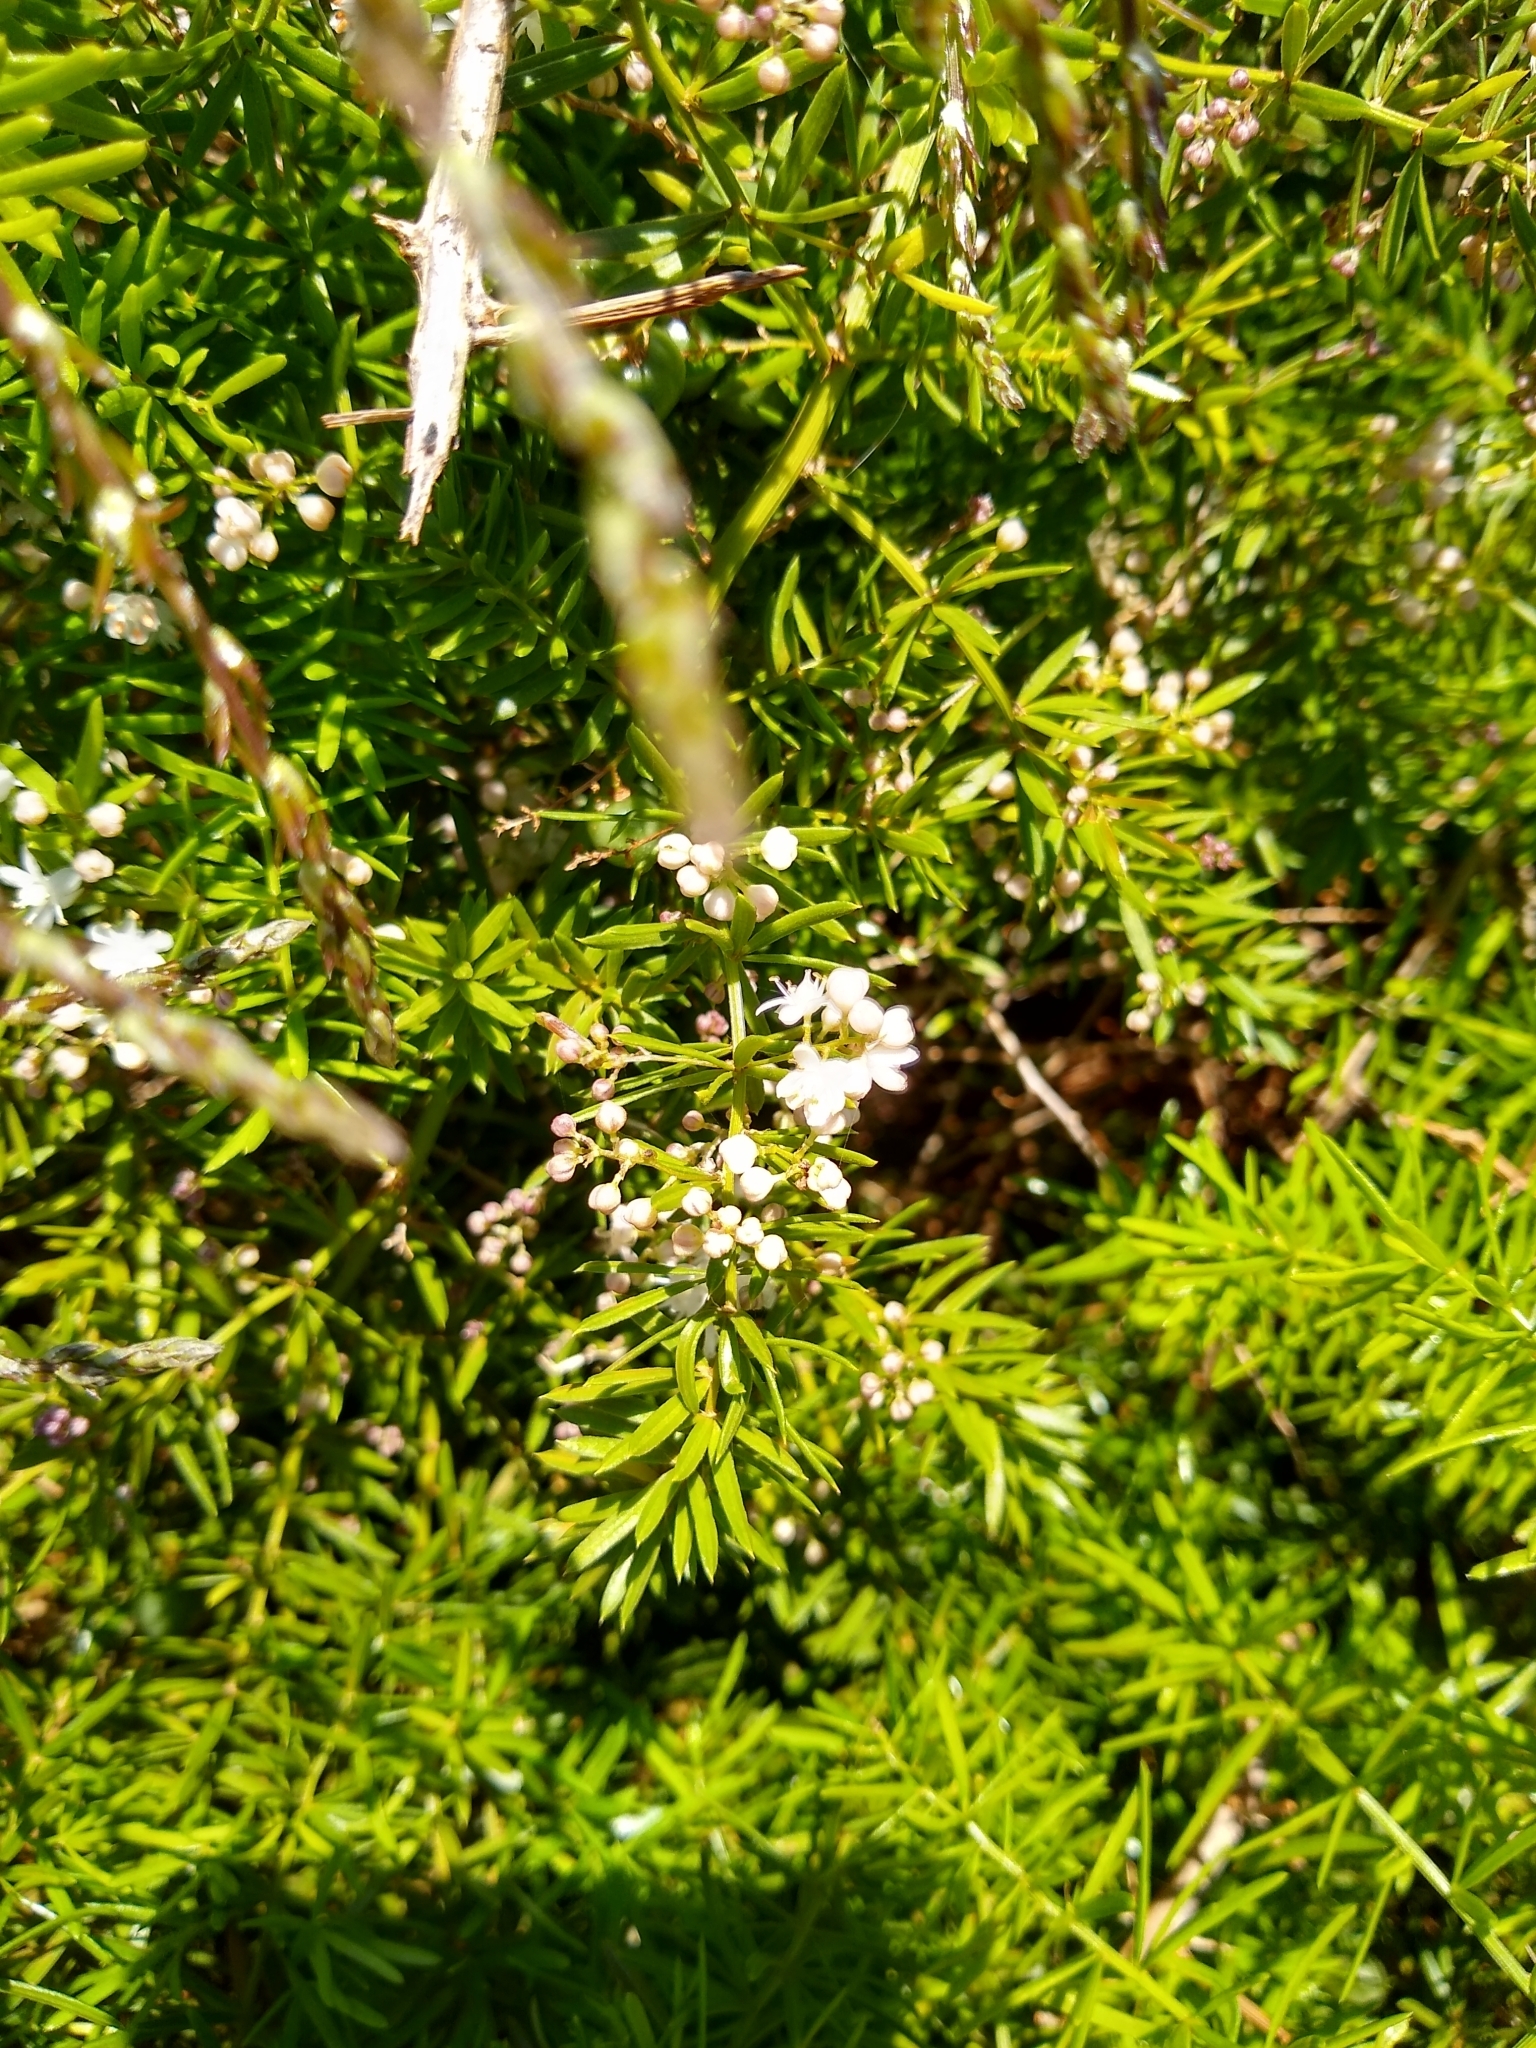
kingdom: Plantae
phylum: Tracheophyta
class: Liliopsida
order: Asparagales
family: Asparagaceae
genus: Asparagus
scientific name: Asparagus aethiopicus
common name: Sprenger's asparagus fern
